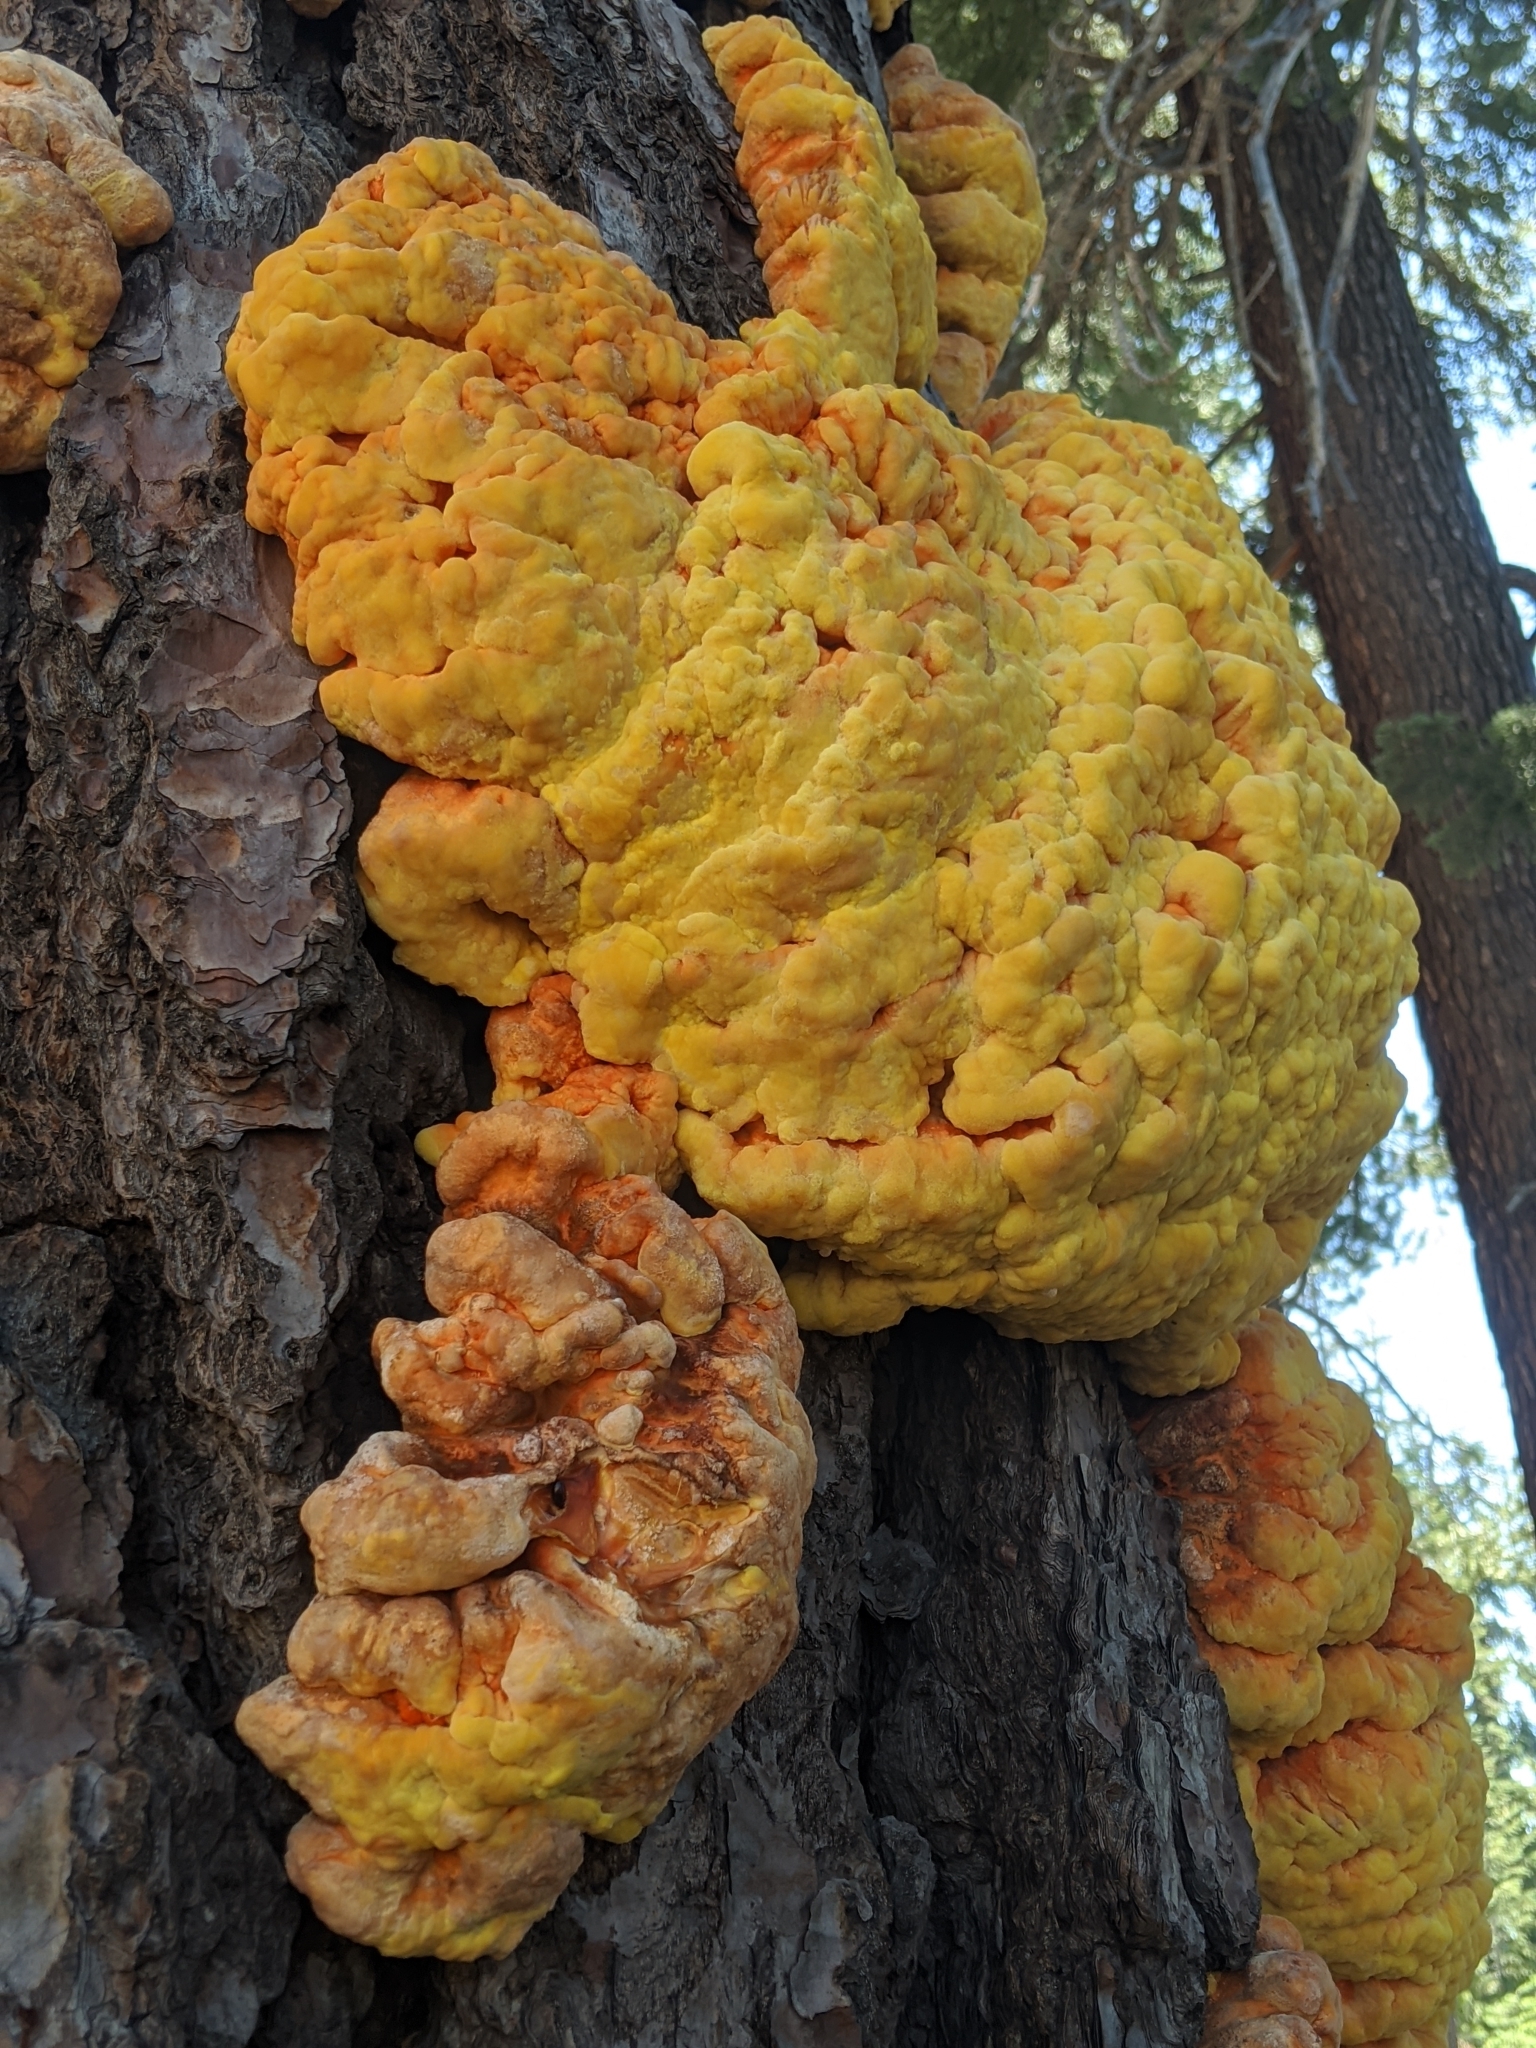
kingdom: Fungi
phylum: Basidiomycota
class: Agaricomycetes
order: Polyporales
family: Laetiporaceae
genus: Laetiporus
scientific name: Laetiporus conifericola
